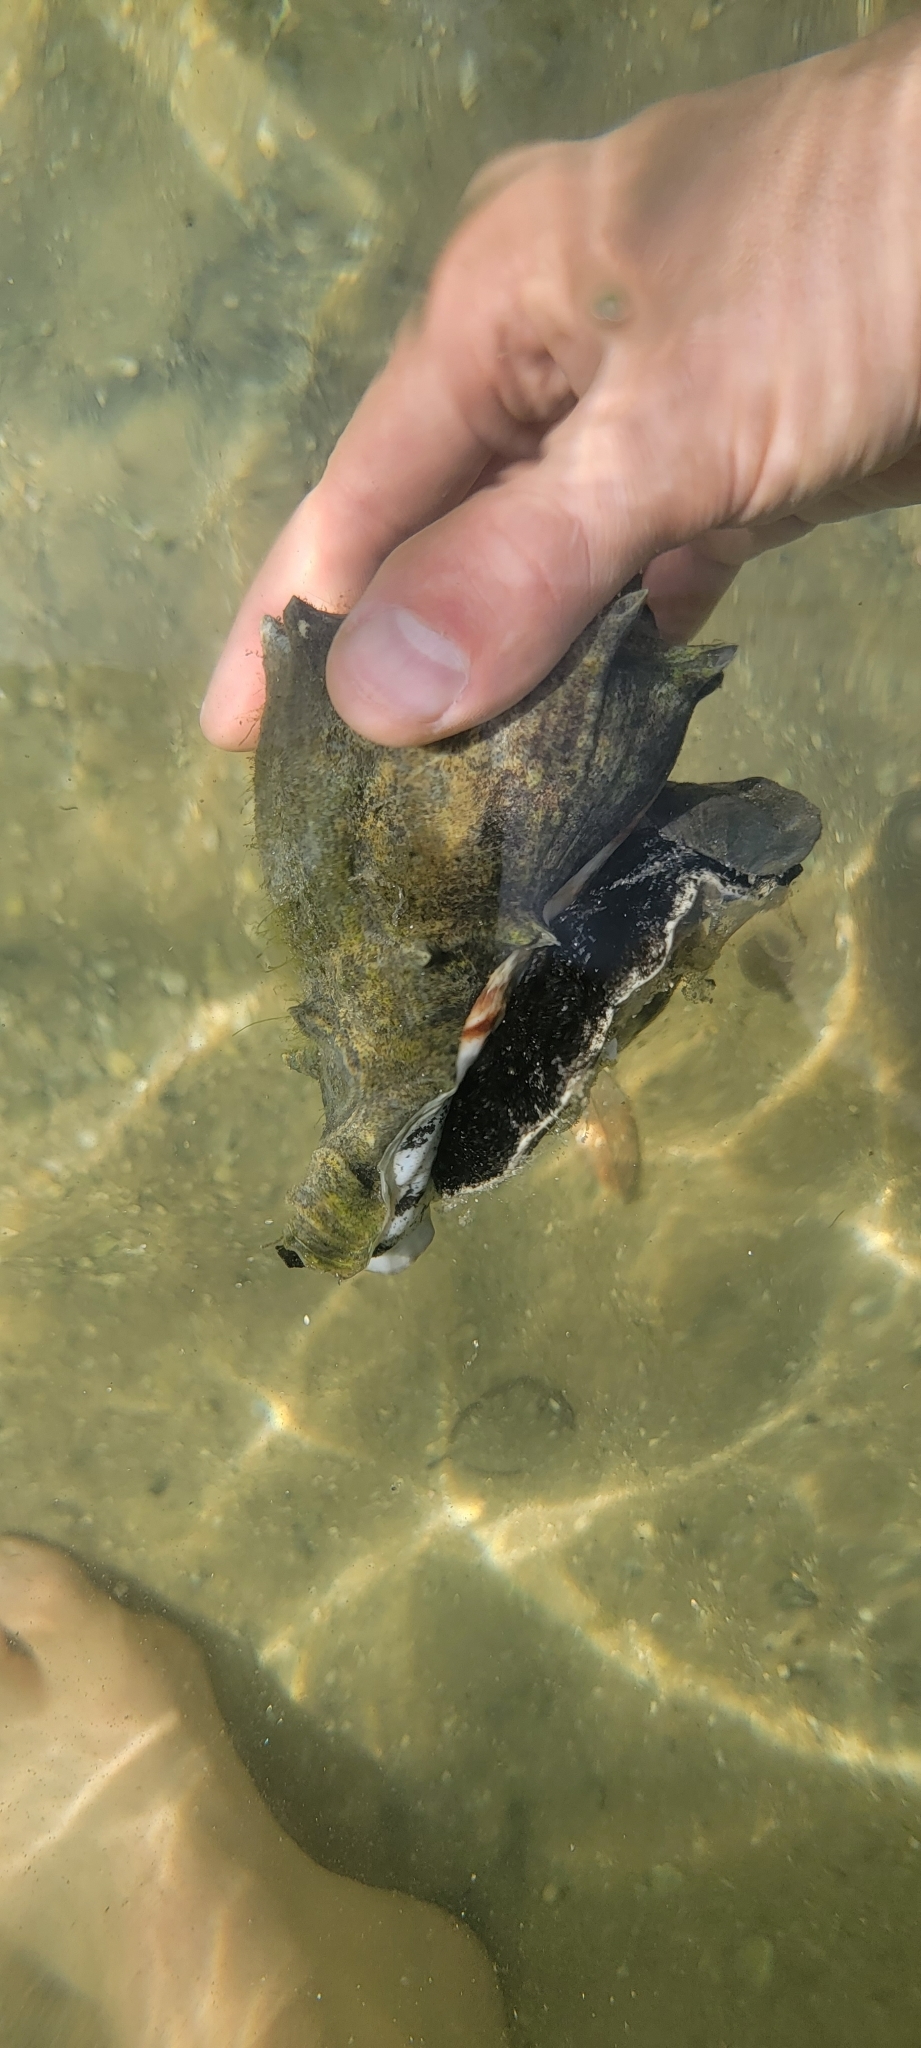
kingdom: Animalia
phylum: Mollusca
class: Gastropoda
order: Neogastropoda
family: Melongenidae
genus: Melongena
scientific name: Melongena corona
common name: American crown conch
